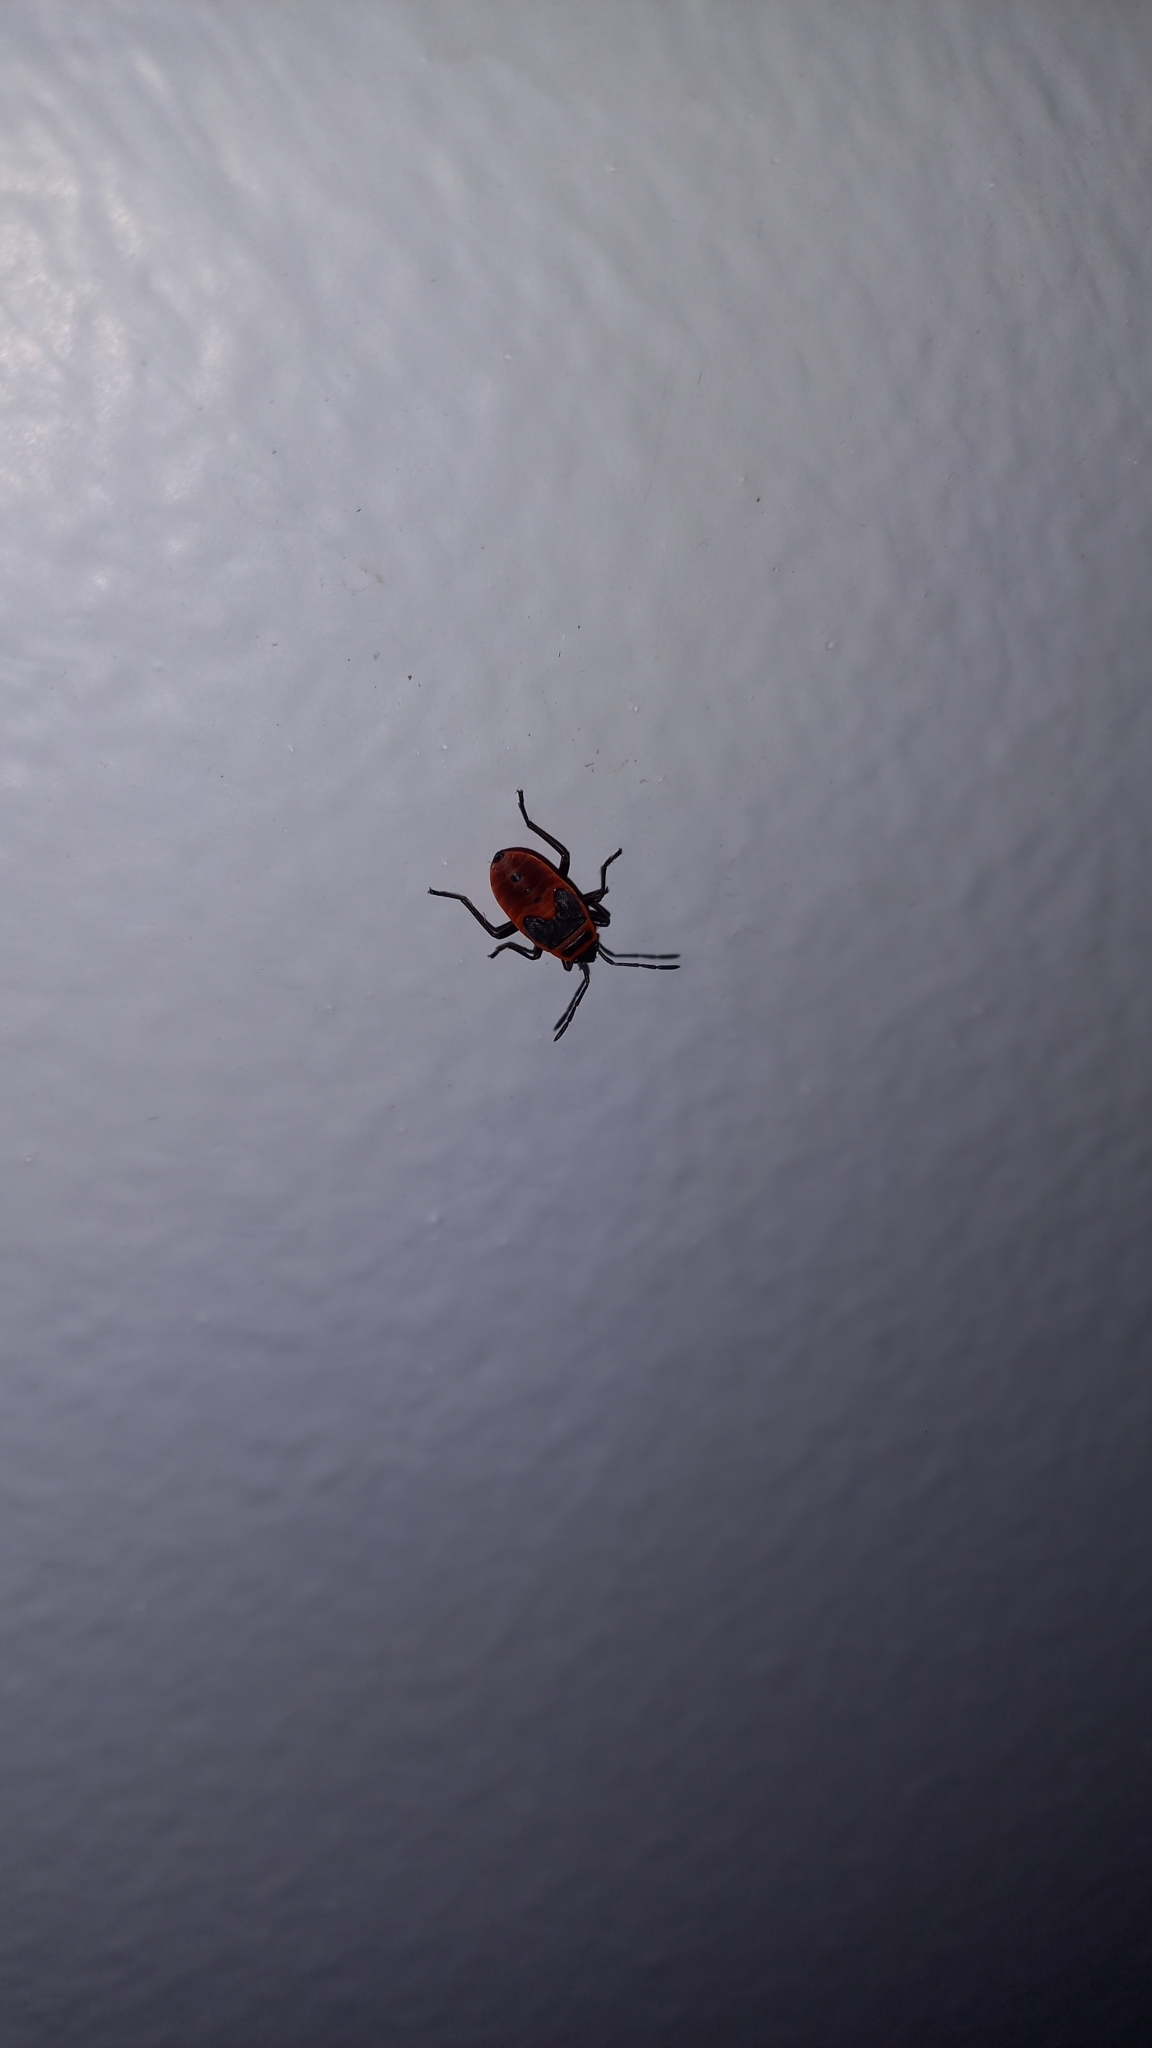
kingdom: Animalia
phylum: Arthropoda
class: Insecta
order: Hemiptera
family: Pyrrhocoridae
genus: Pyrrhocoris
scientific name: Pyrrhocoris apterus
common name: Firebug
